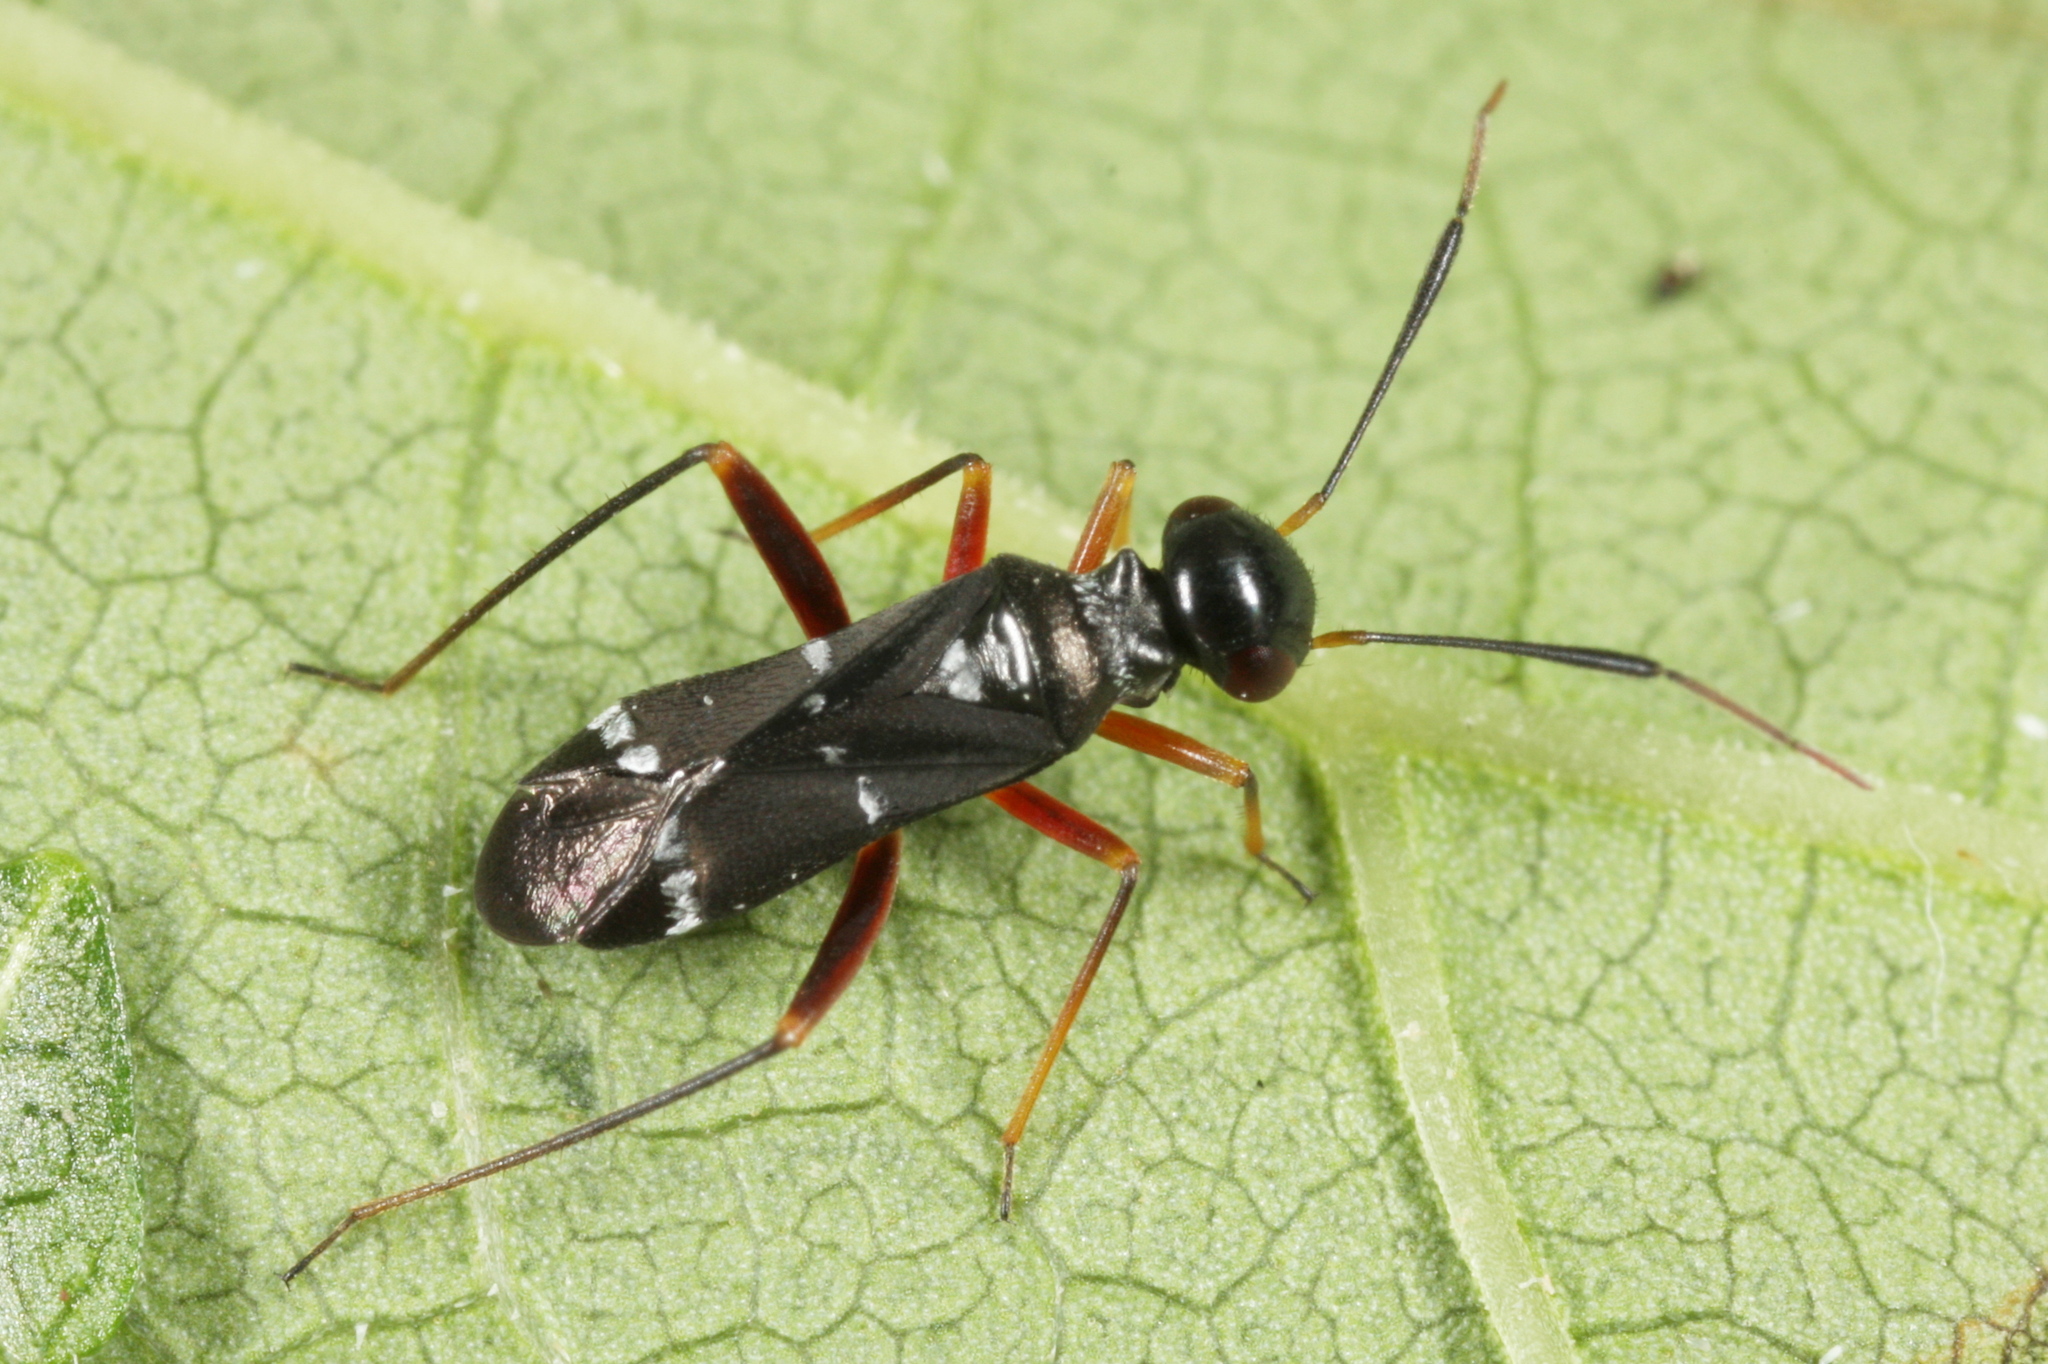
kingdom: Animalia
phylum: Arthropoda
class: Insecta
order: Hemiptera
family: Miridae
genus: Globiceps
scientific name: Globiceps sphaegiformis
